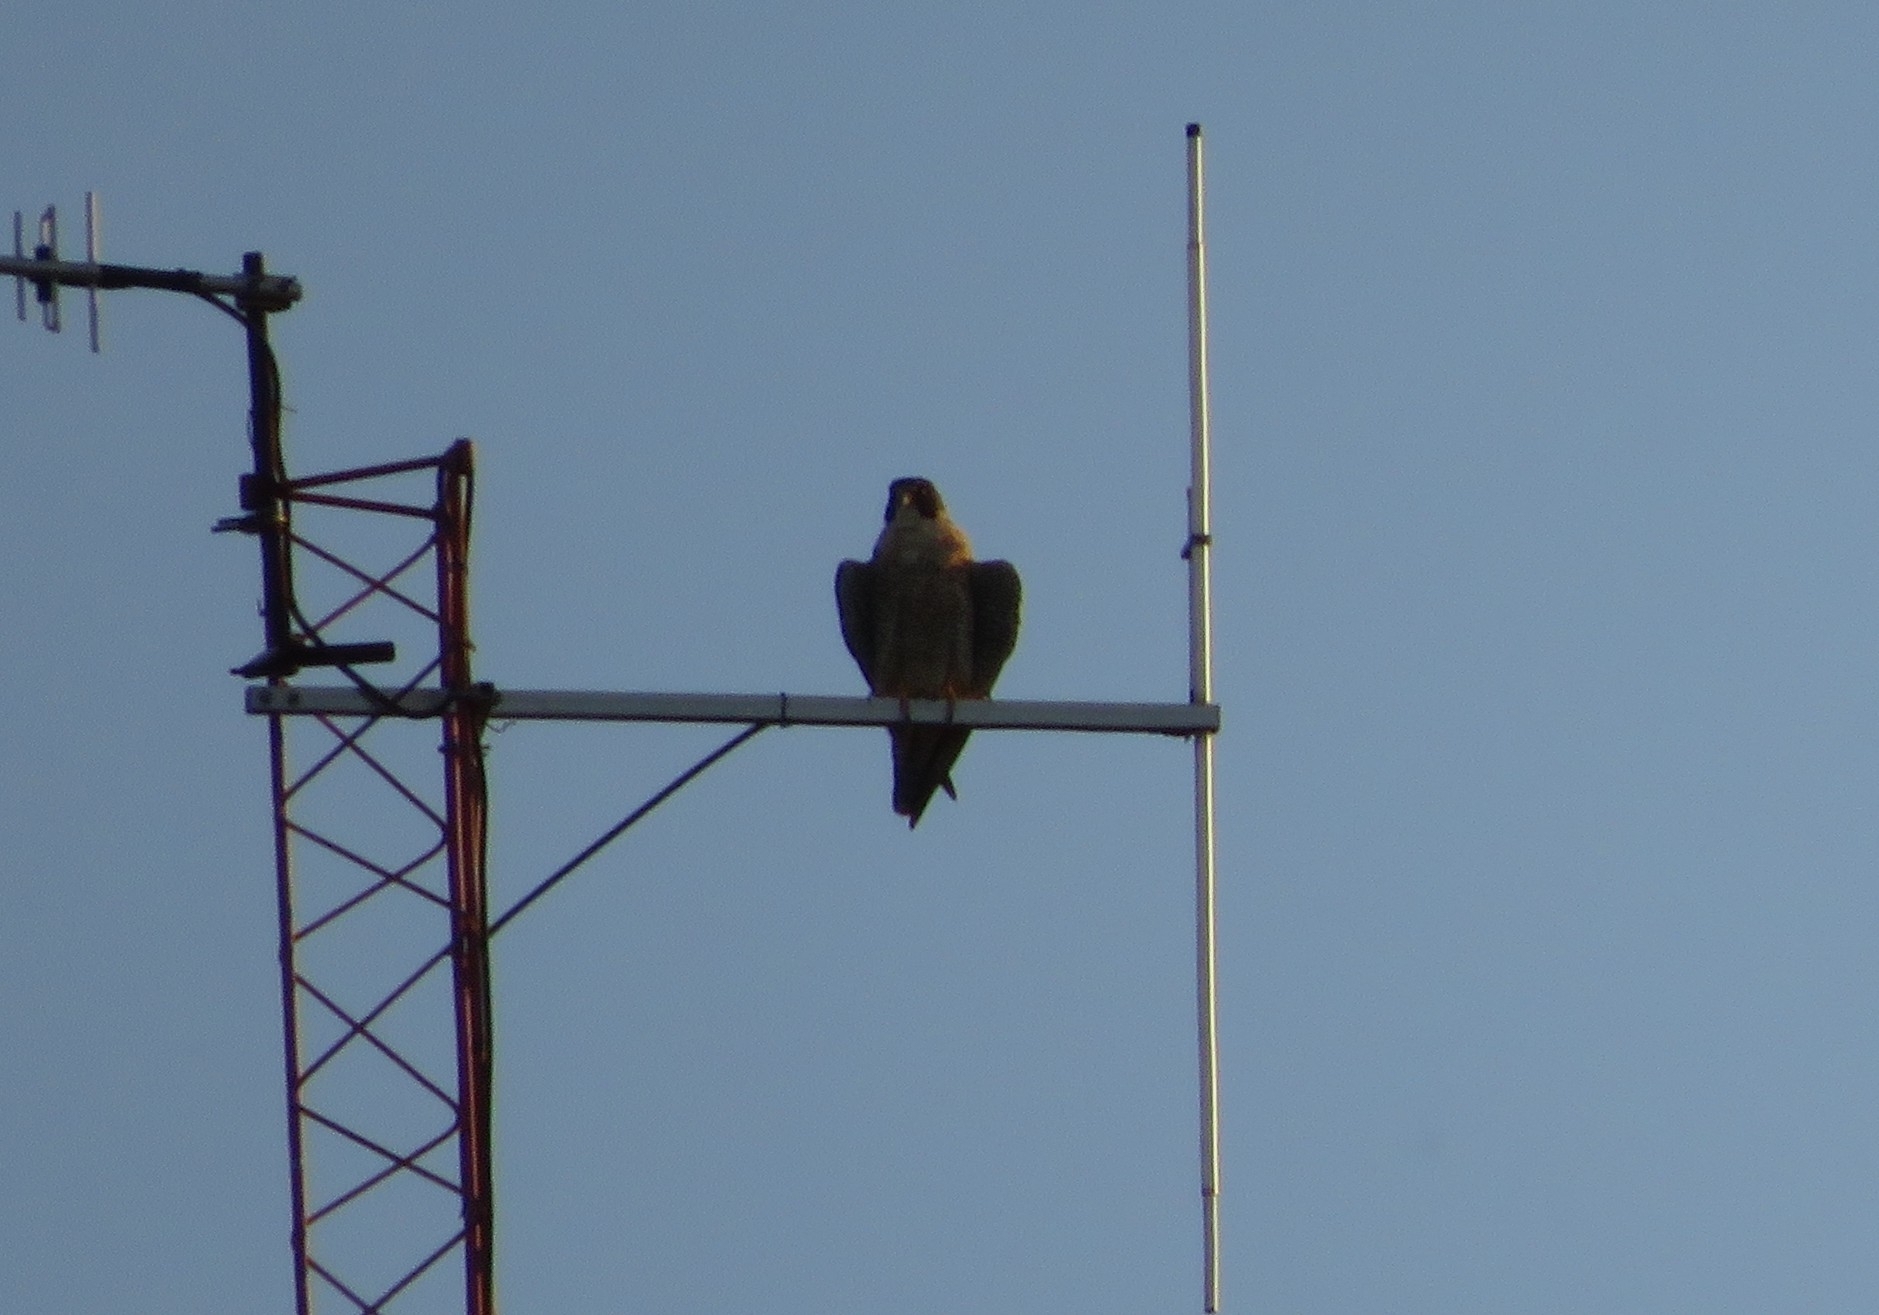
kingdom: Animalia
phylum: Chordata
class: Aves
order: Falconiformes
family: Falconidae
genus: Falco
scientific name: Falco peregrinus
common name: Peregrine falcon
